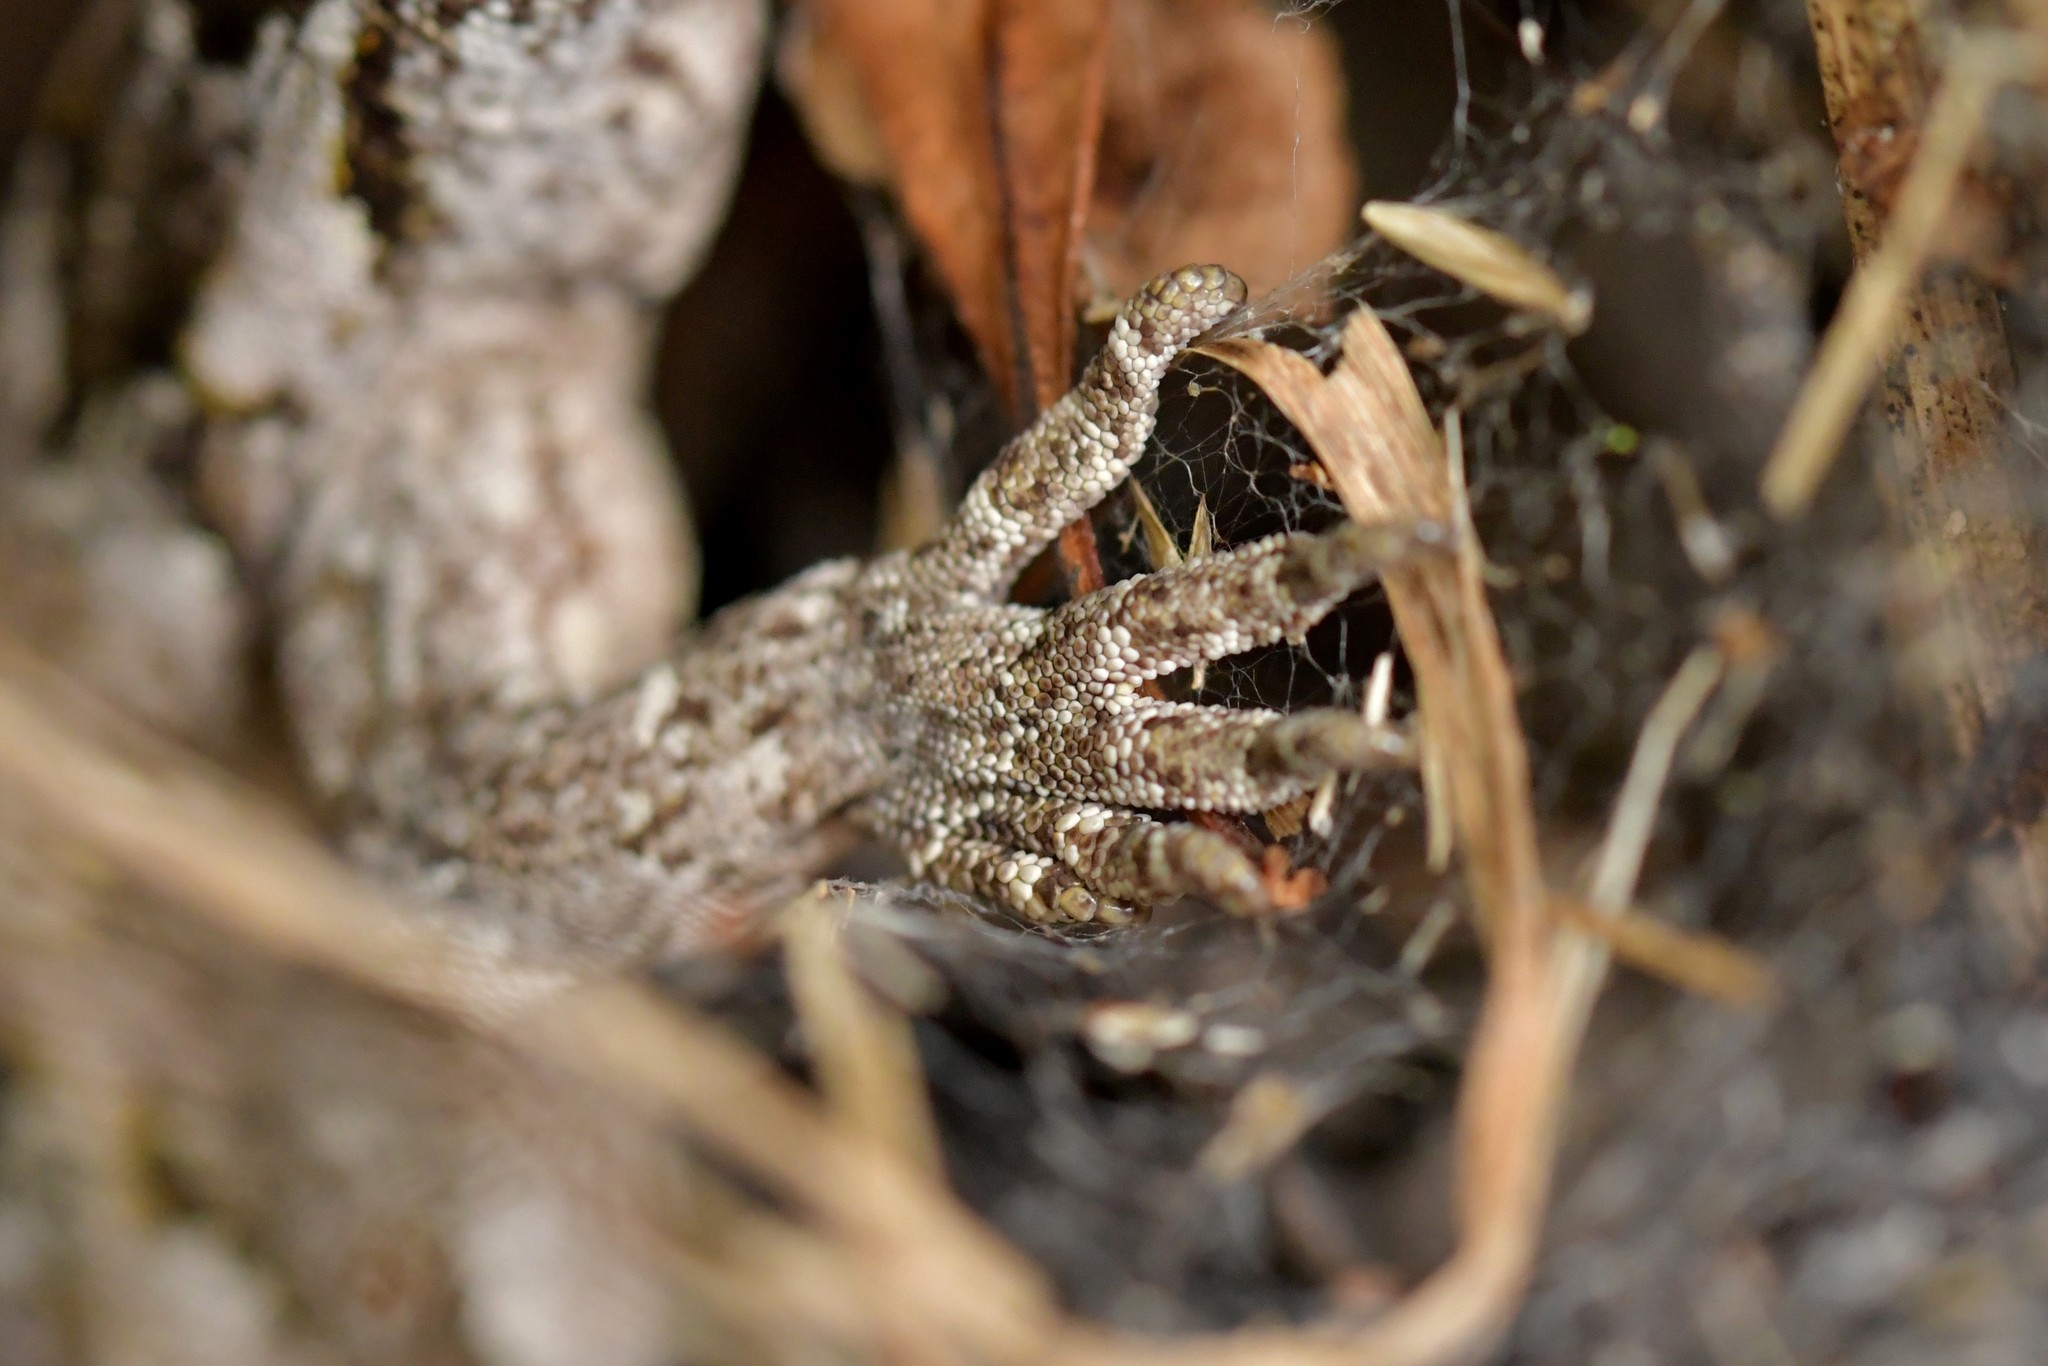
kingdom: Animalia
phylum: Chordata
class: Squamata
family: Diplodactylidae
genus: Mokopirirakau
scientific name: Mokopirirakau
